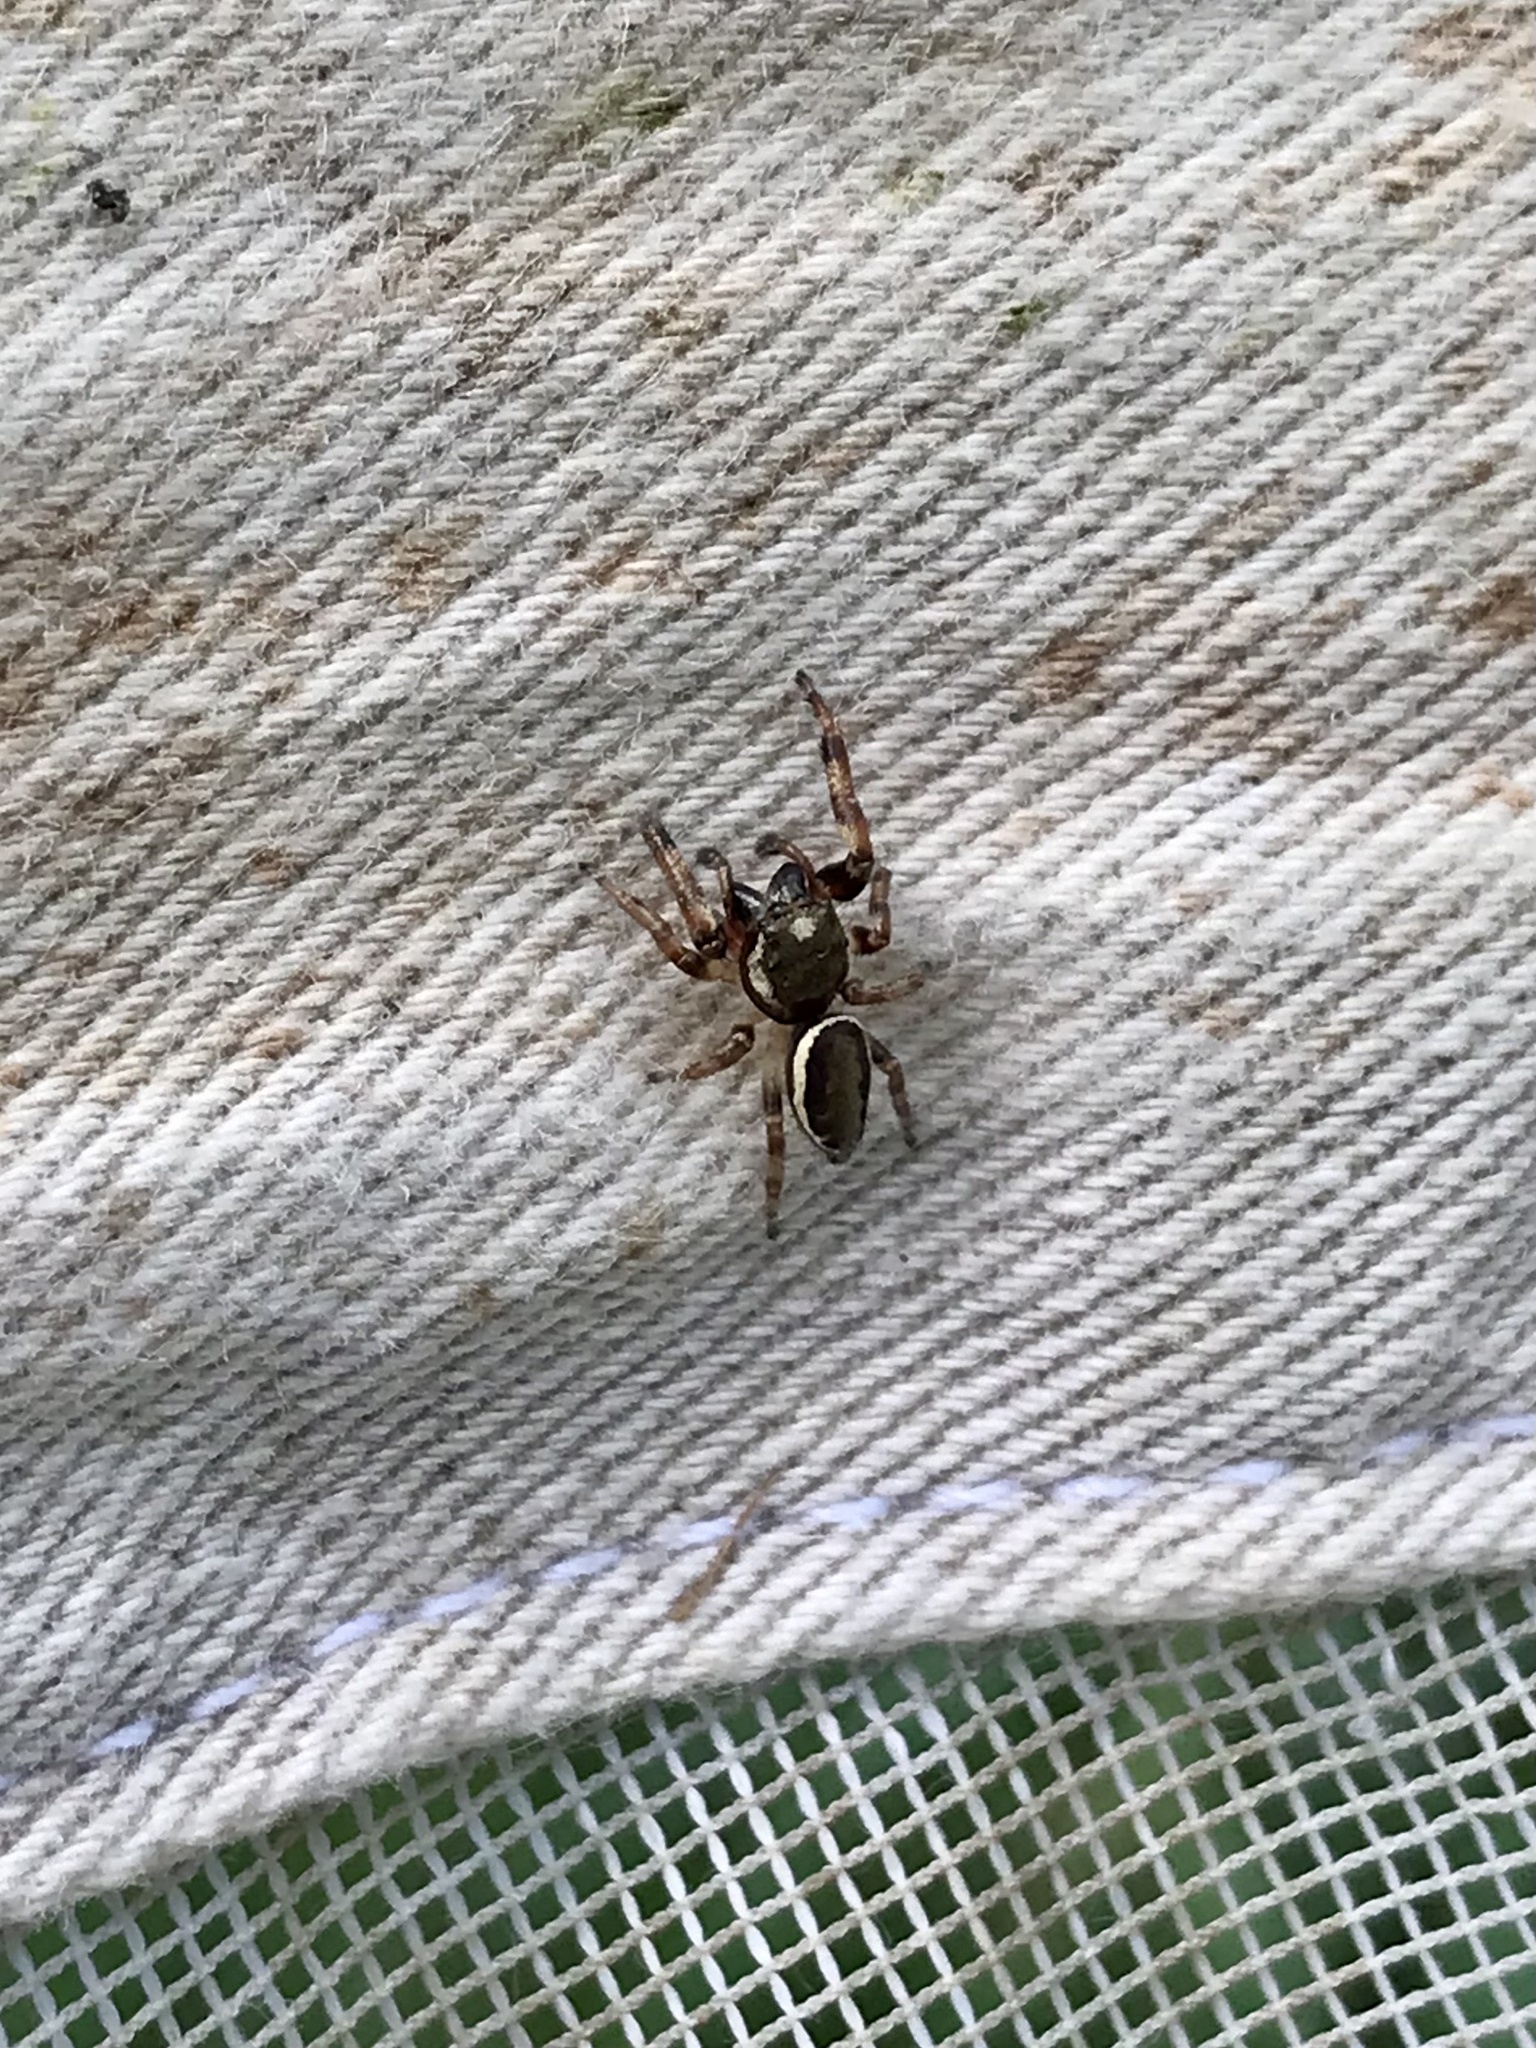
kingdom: Animalia
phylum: Arthropoda
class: Arachnida
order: Araneae
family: Salticidae
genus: Eris
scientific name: Eris militaris
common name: Bronze jumper
